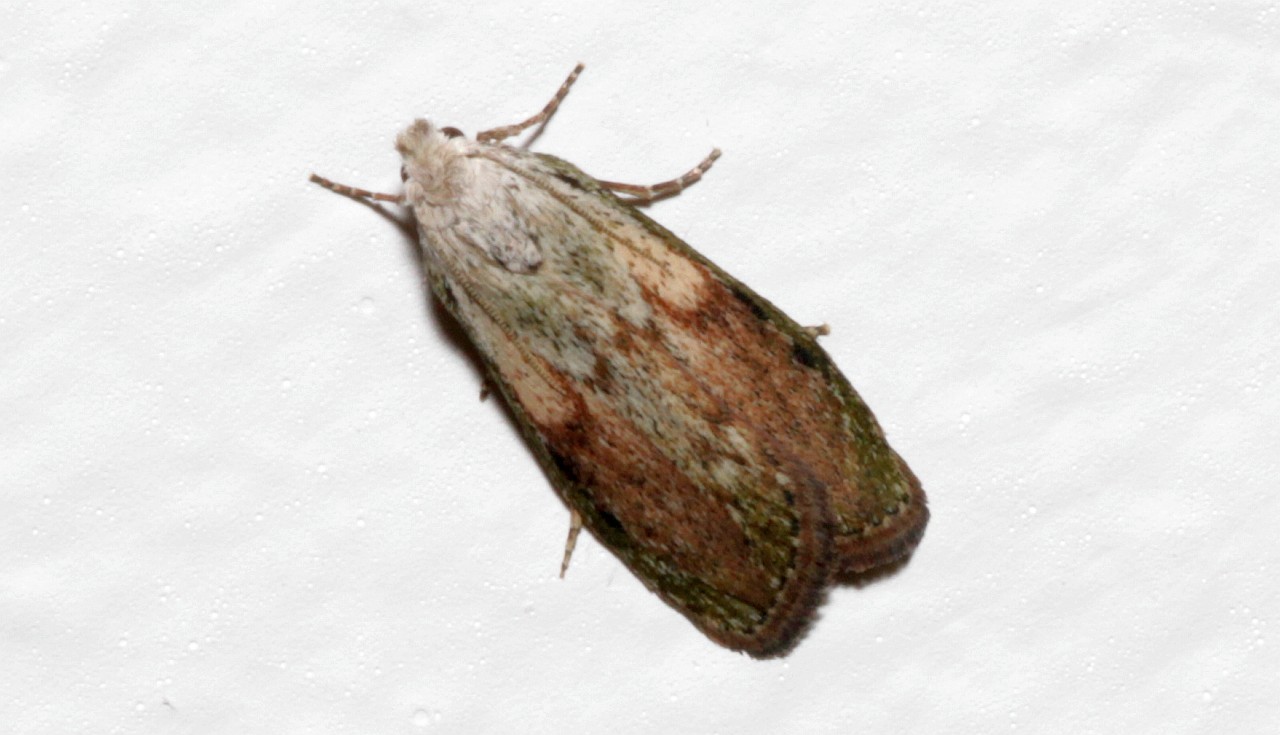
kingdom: Animalia
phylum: Arthropoda
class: Insecta
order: Lepidoptera
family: Pyralidae
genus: Aphomia
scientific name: Aphomia sociella
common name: Bee moth
